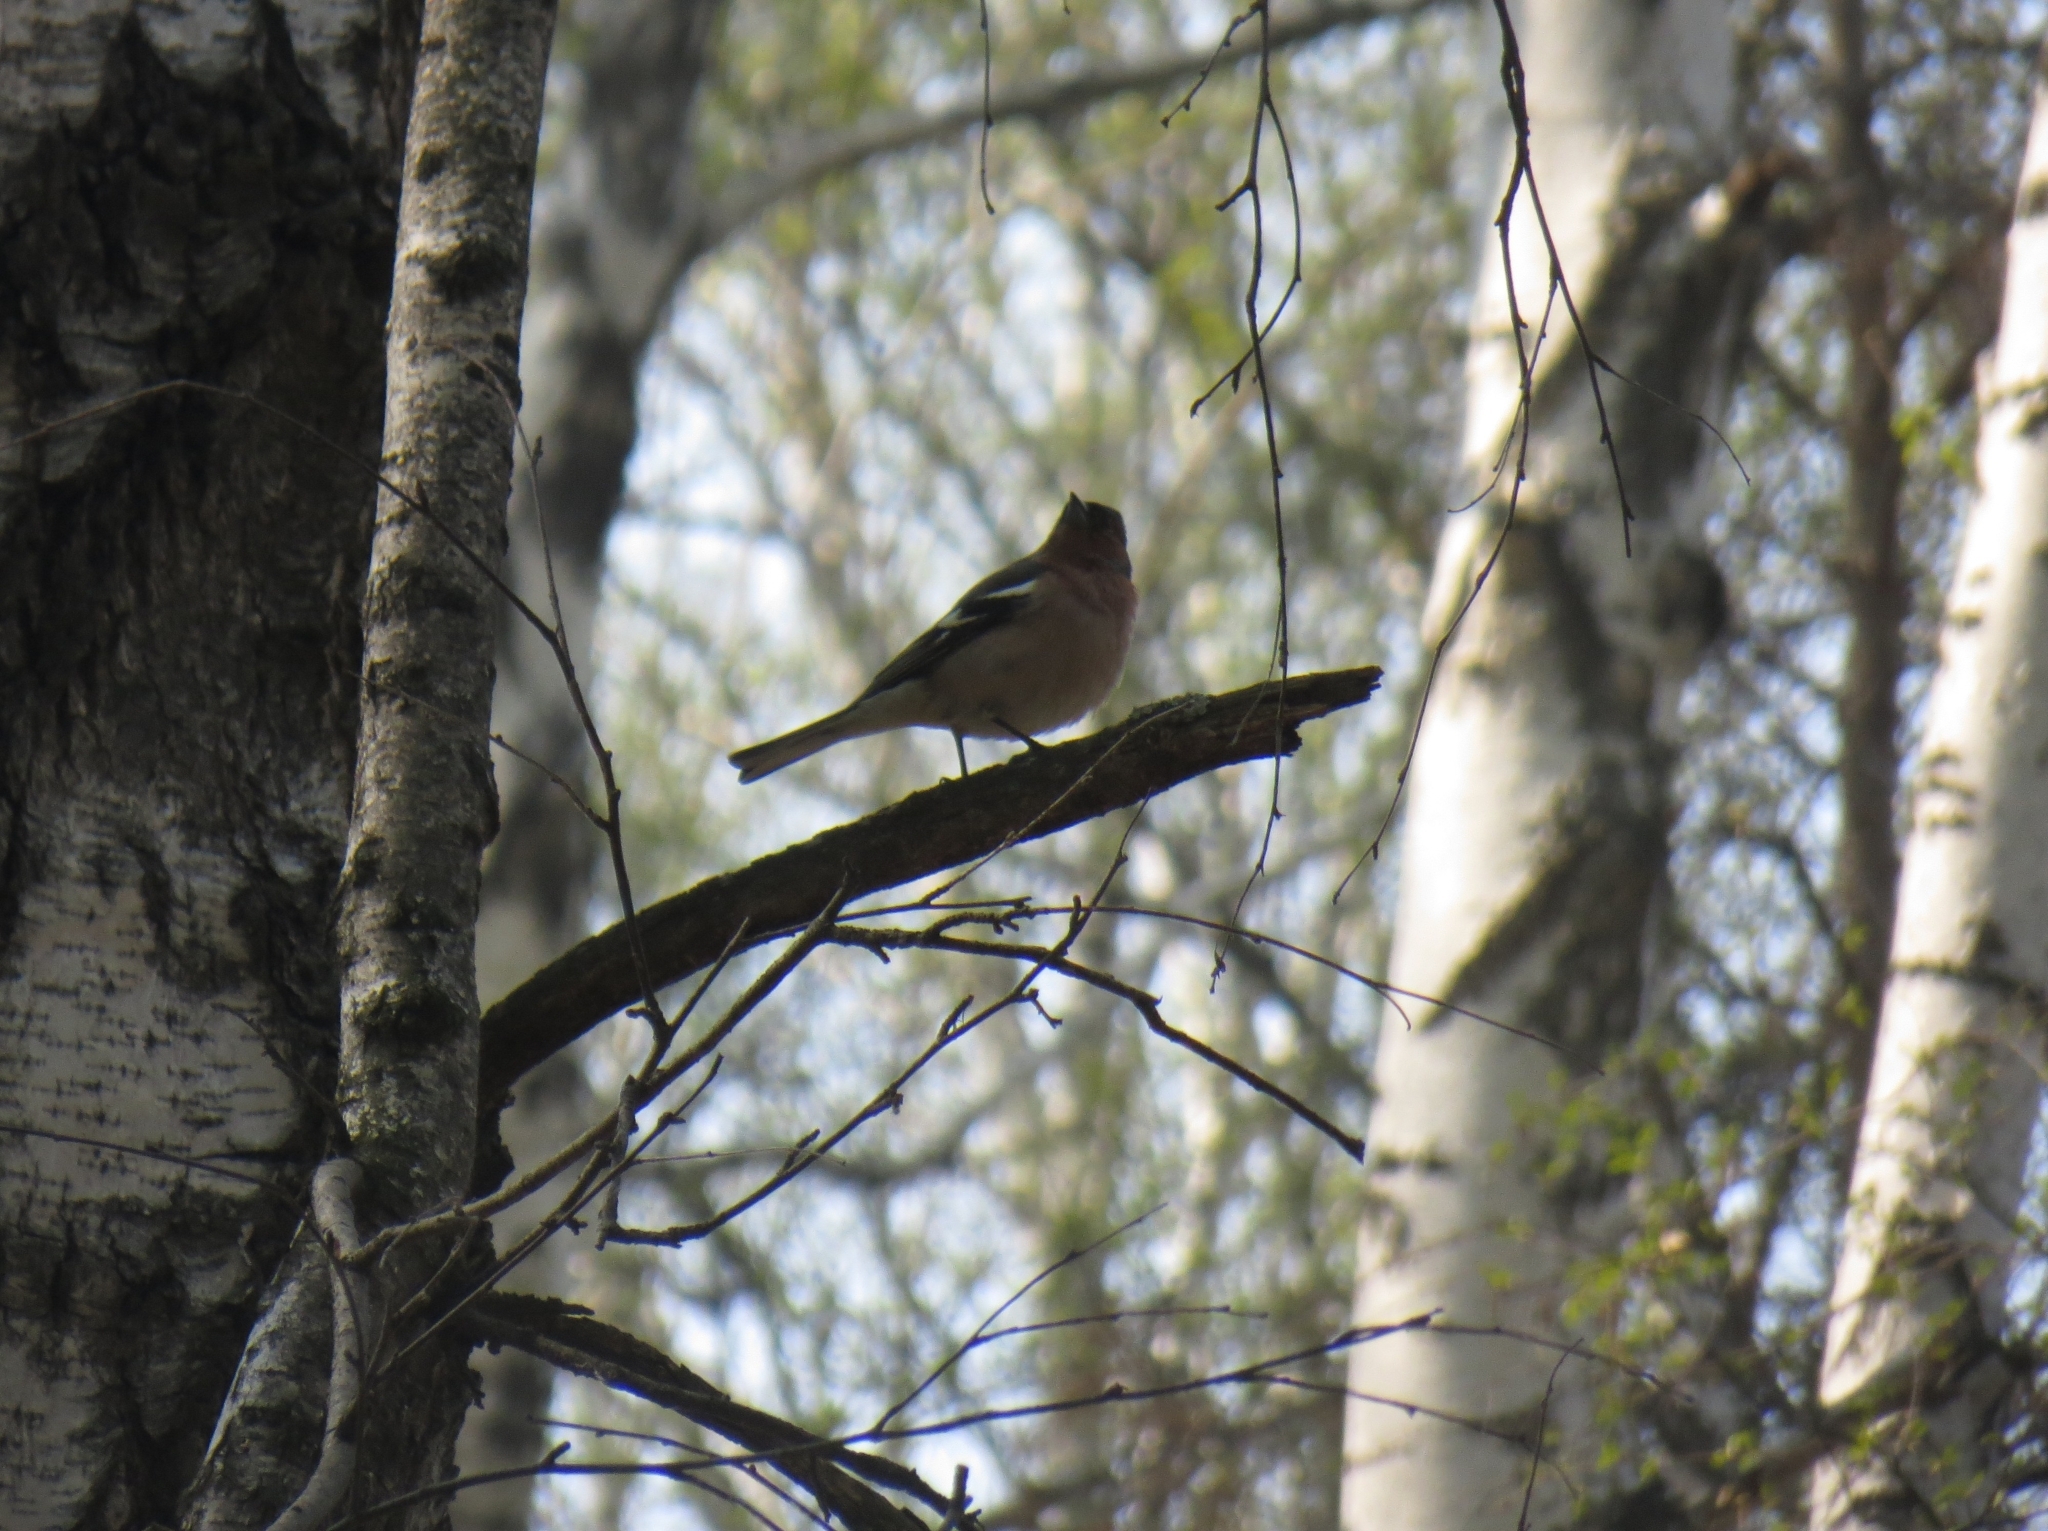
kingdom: Animalia
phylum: Chordata
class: Aves
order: Passeriformes
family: Fringillidae
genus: Fringilla
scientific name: Fringilla coelebs
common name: Common chaffinch
